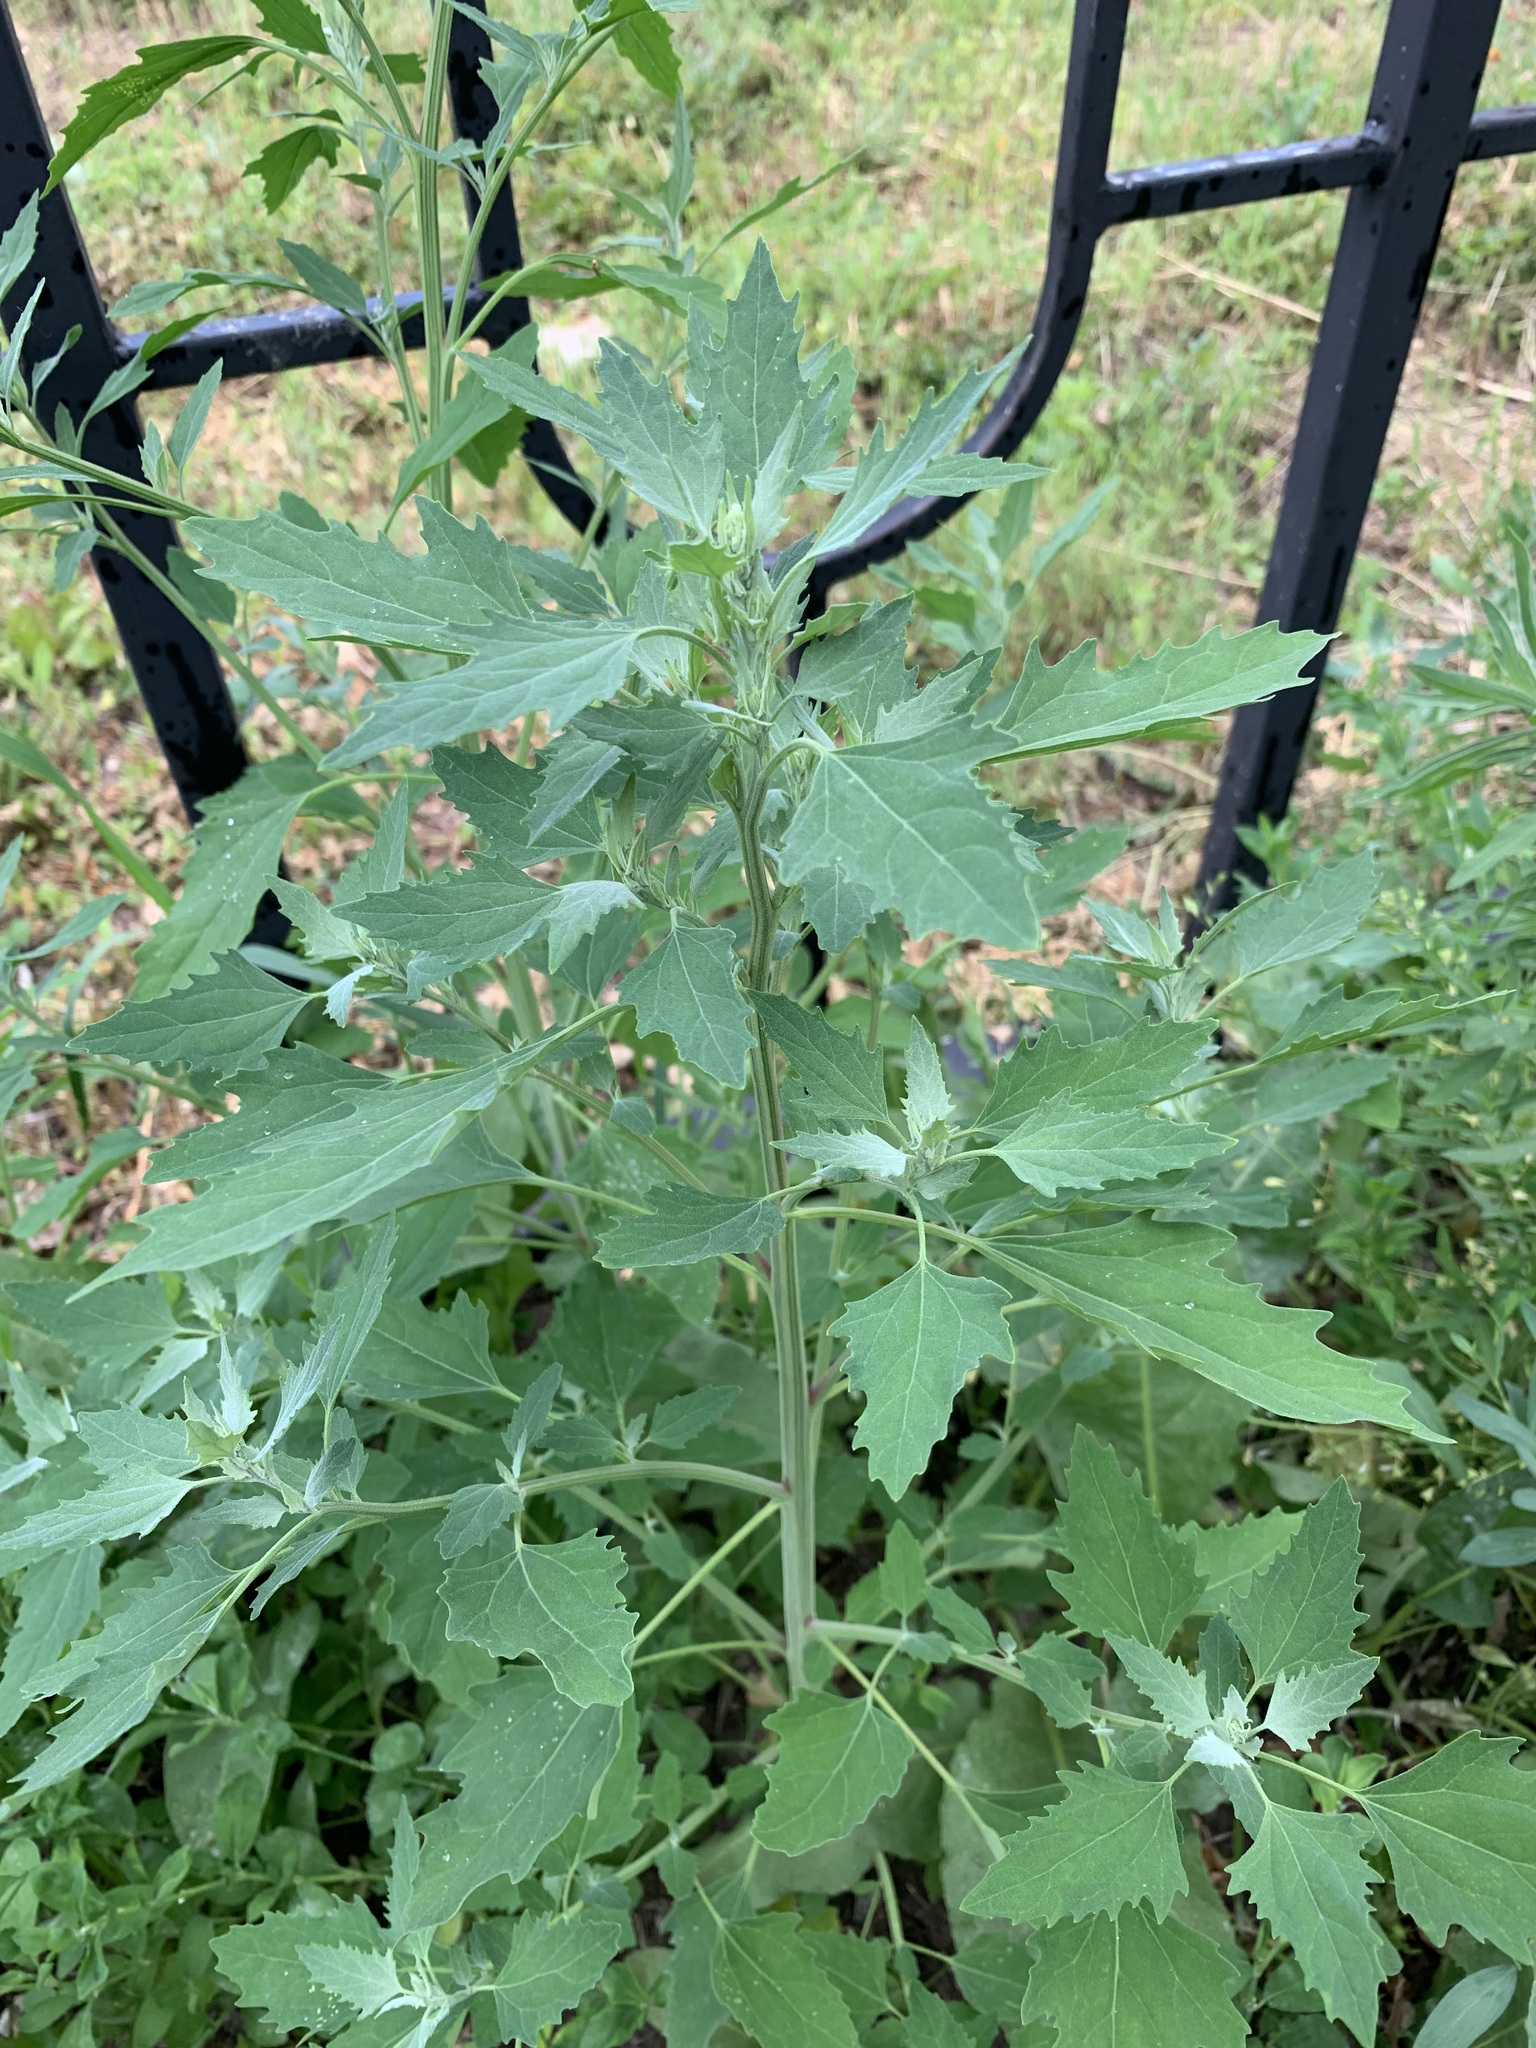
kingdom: Plantae
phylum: Tracheophyta
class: Magnoliopsida
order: Caryophyllales
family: Amaranthaceae
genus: Chenopodium
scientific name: Chenopodium album
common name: Fat-hen
